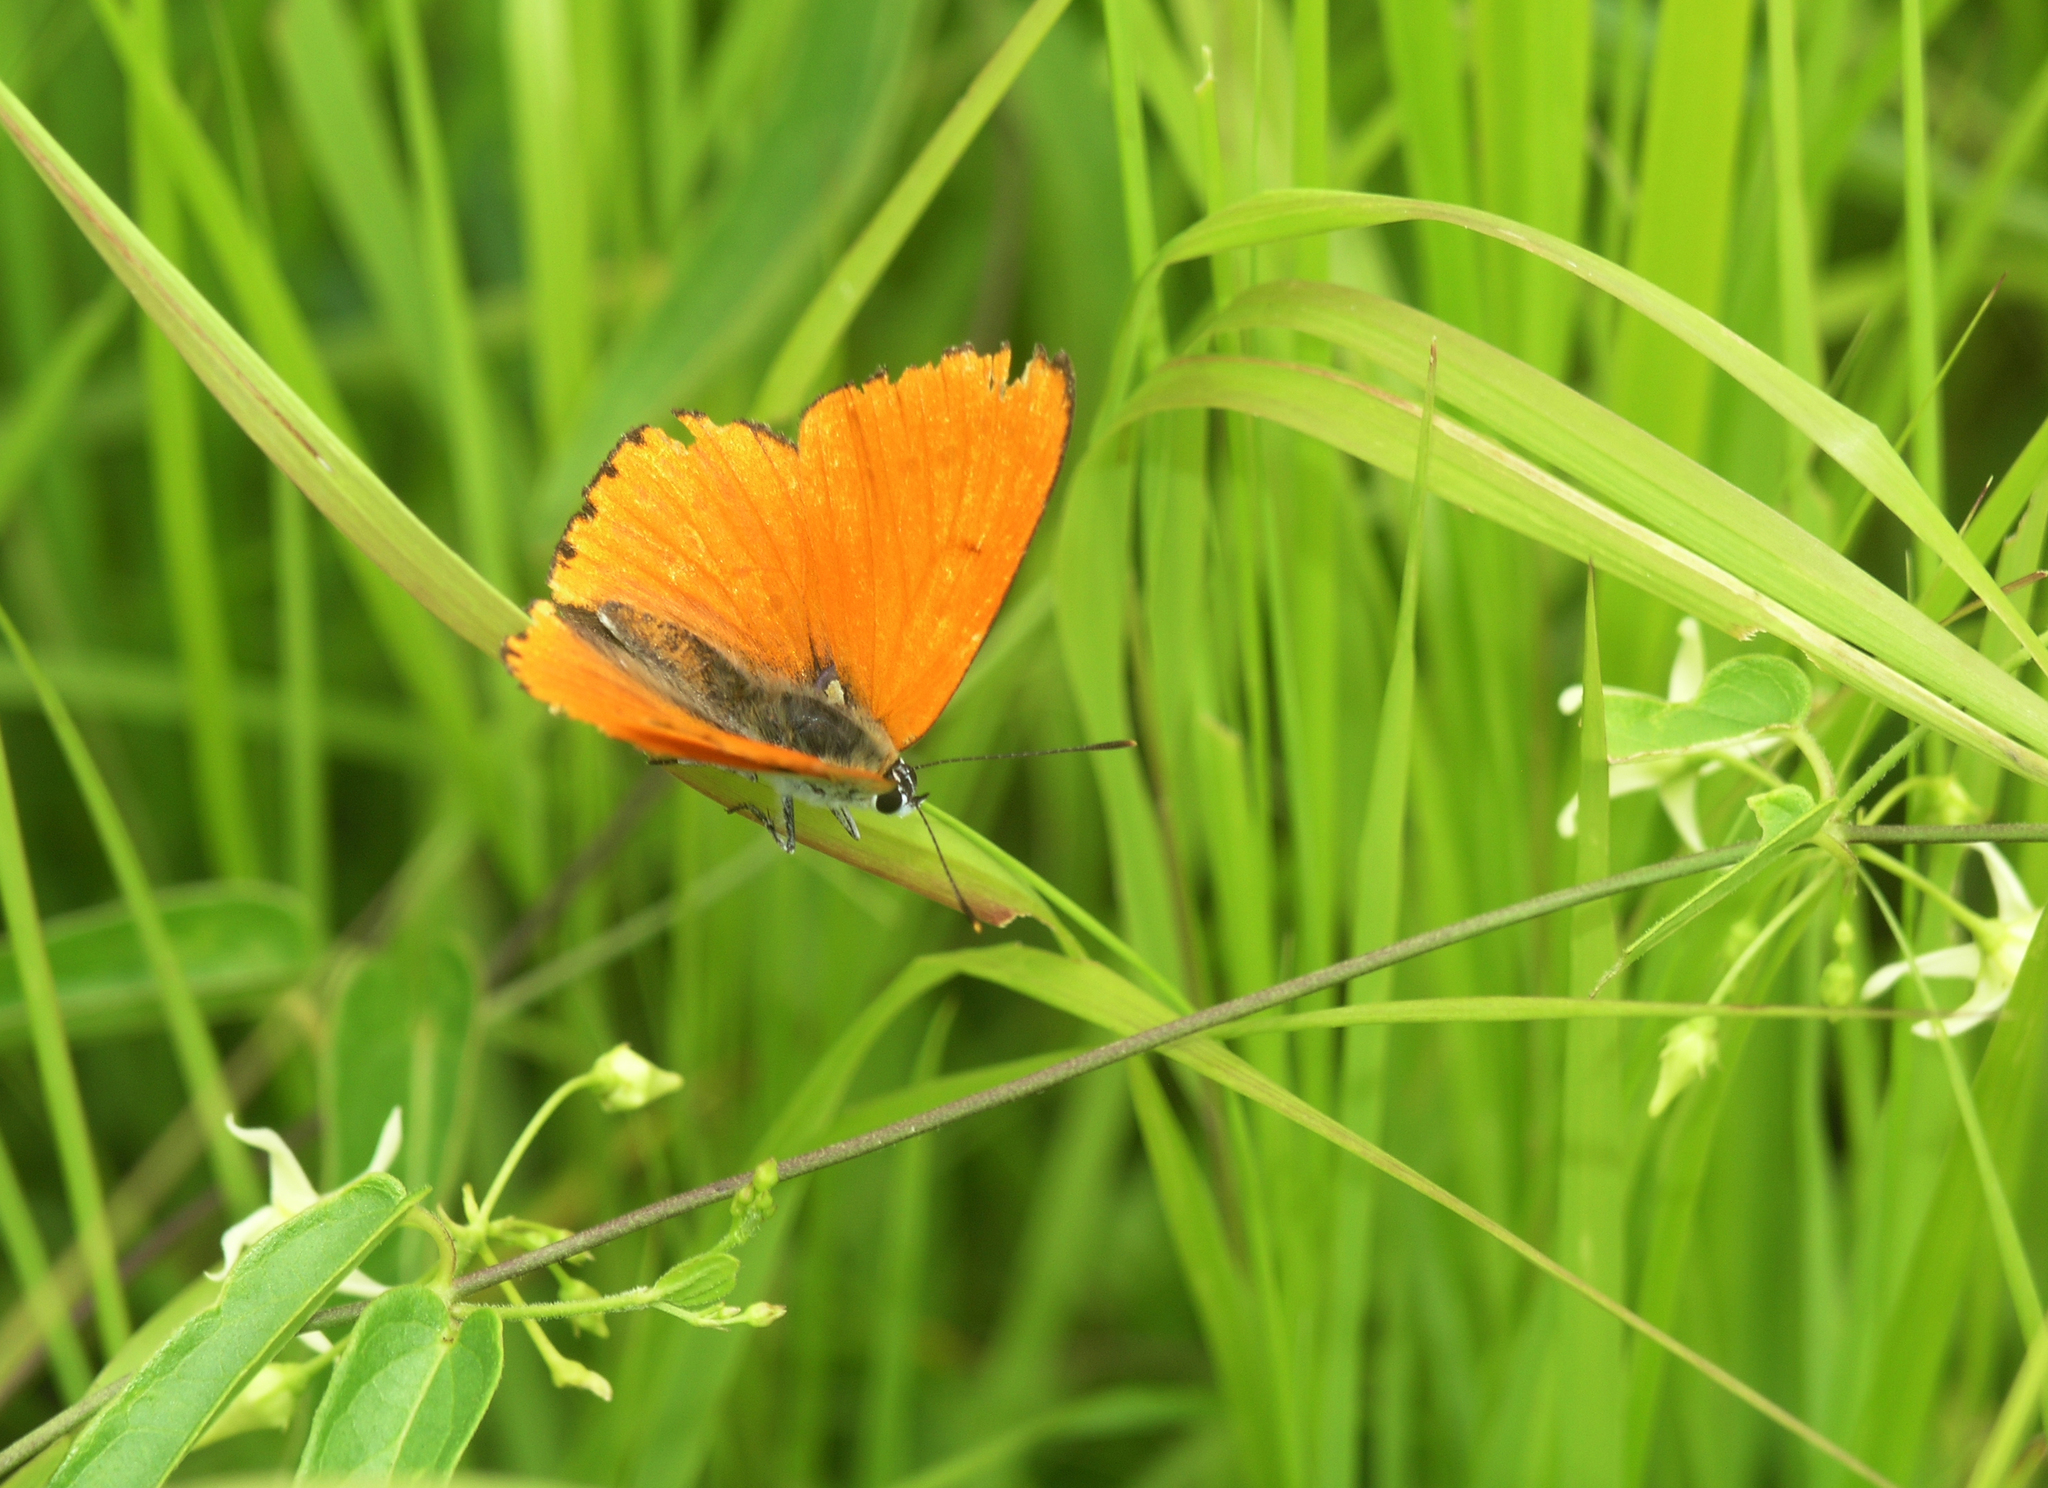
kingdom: Animalia
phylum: Arthropoda
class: Insecta
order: Lepidoptera
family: Lycaenidae
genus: Lycaena
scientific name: Lycaena dispar
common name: Large copper
